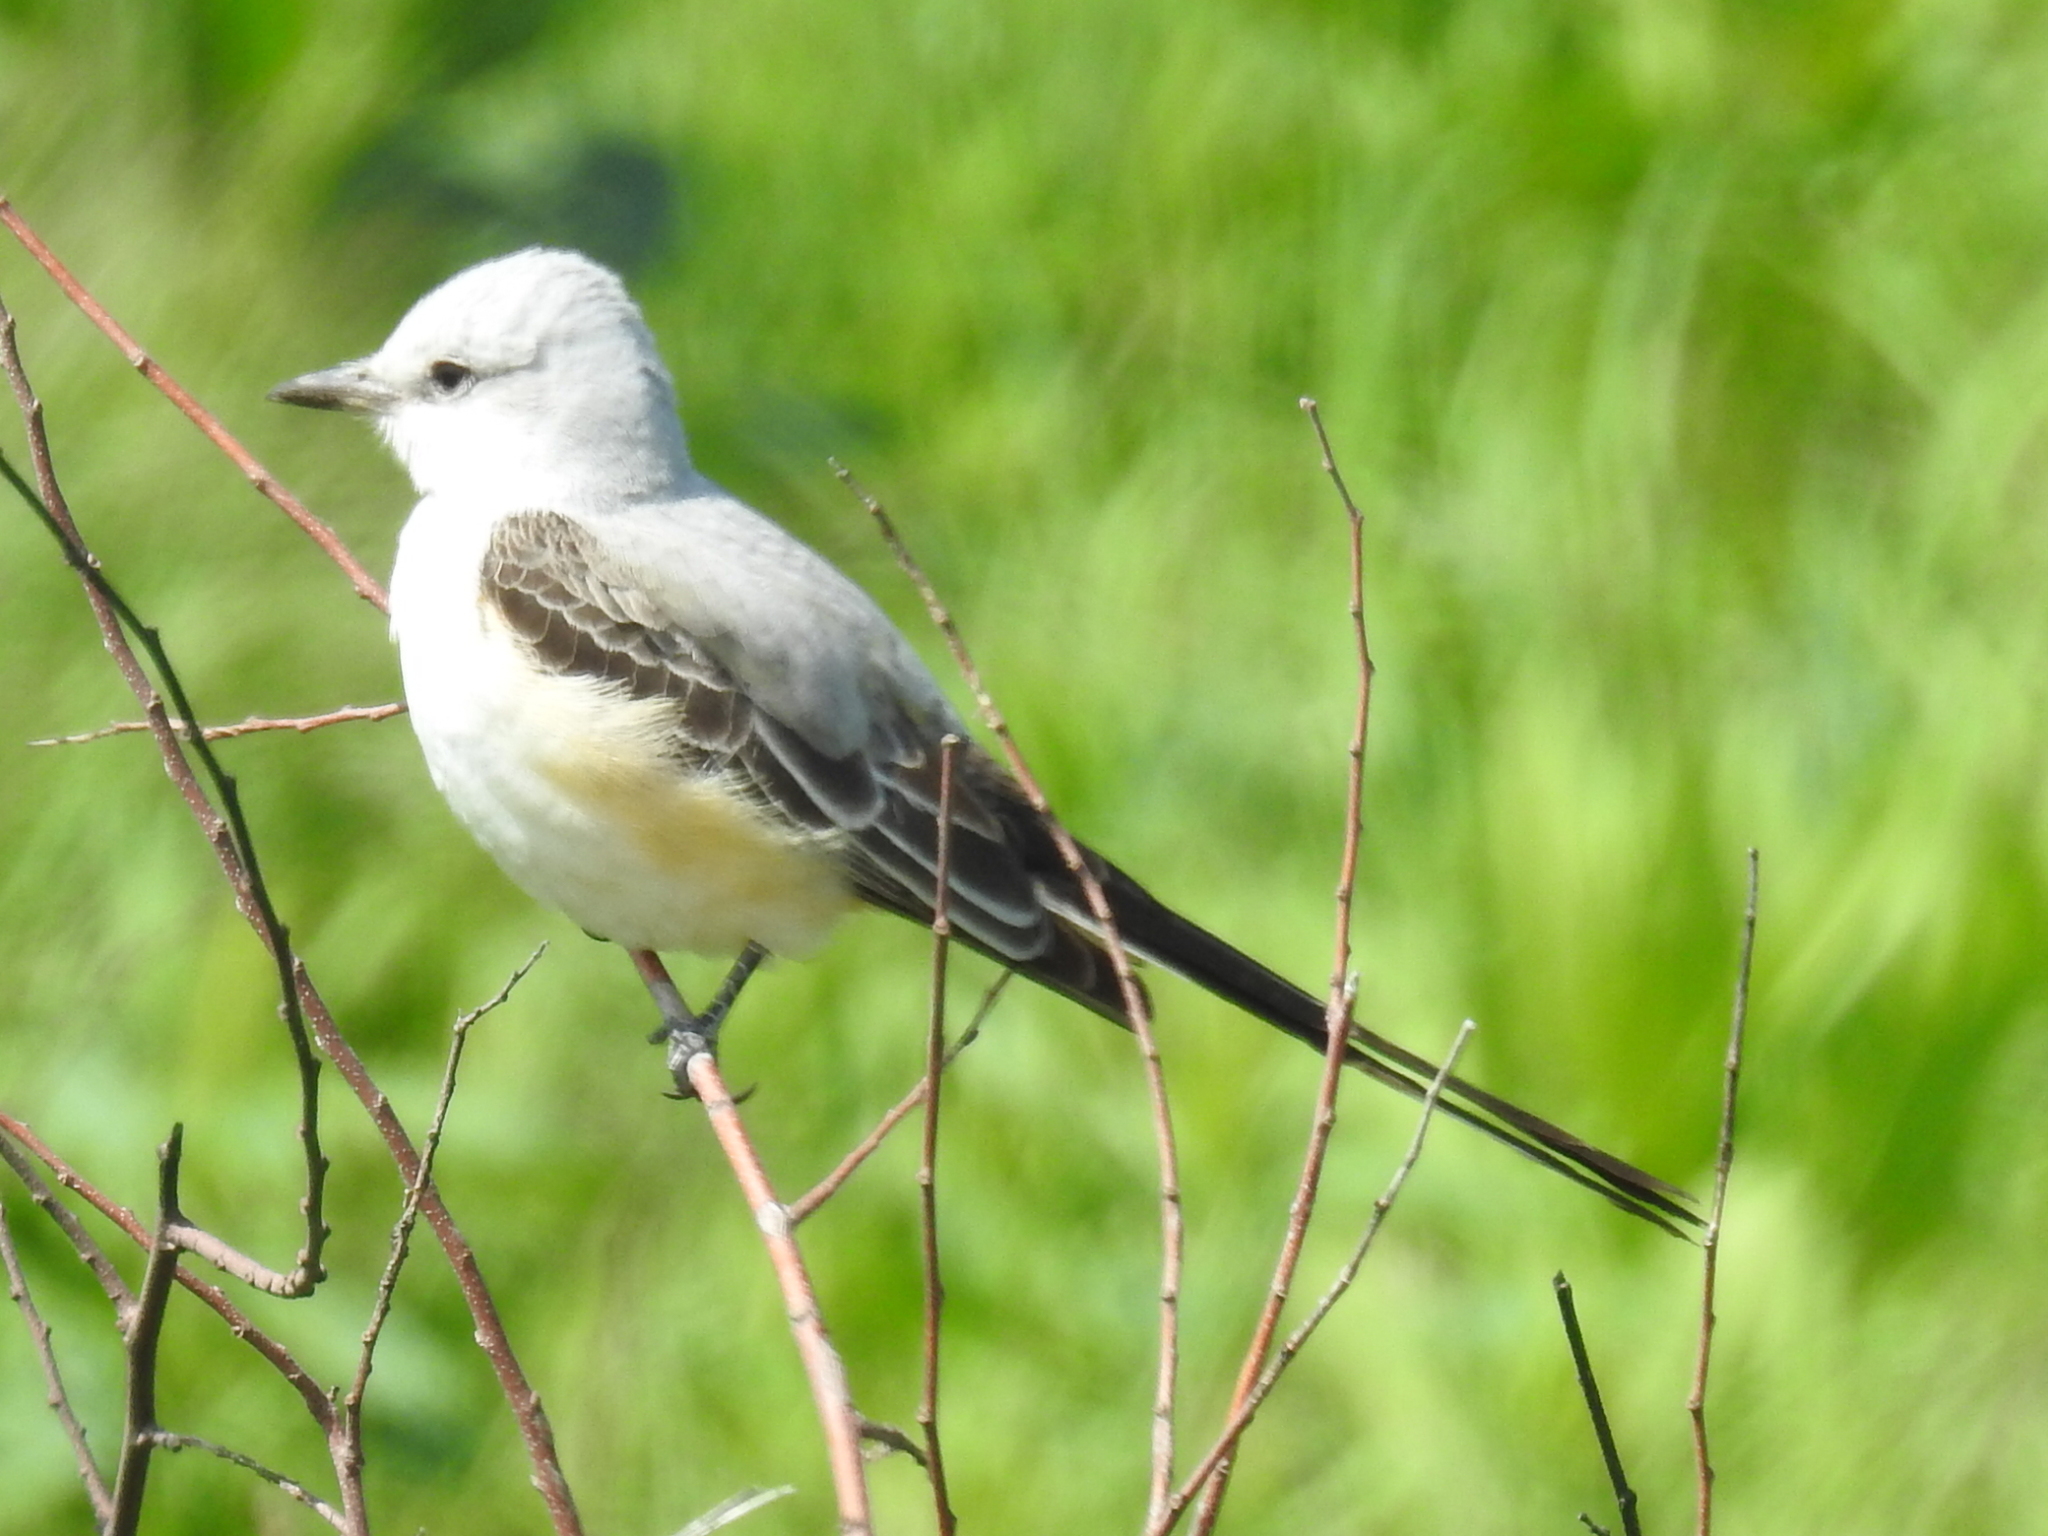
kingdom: Animalia
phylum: Chordata
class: Aves
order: Passeriformes
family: Tyrannidae
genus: Tyrannus
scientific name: Tyrannus forficatus
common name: Scissor-tailed flycatcher
